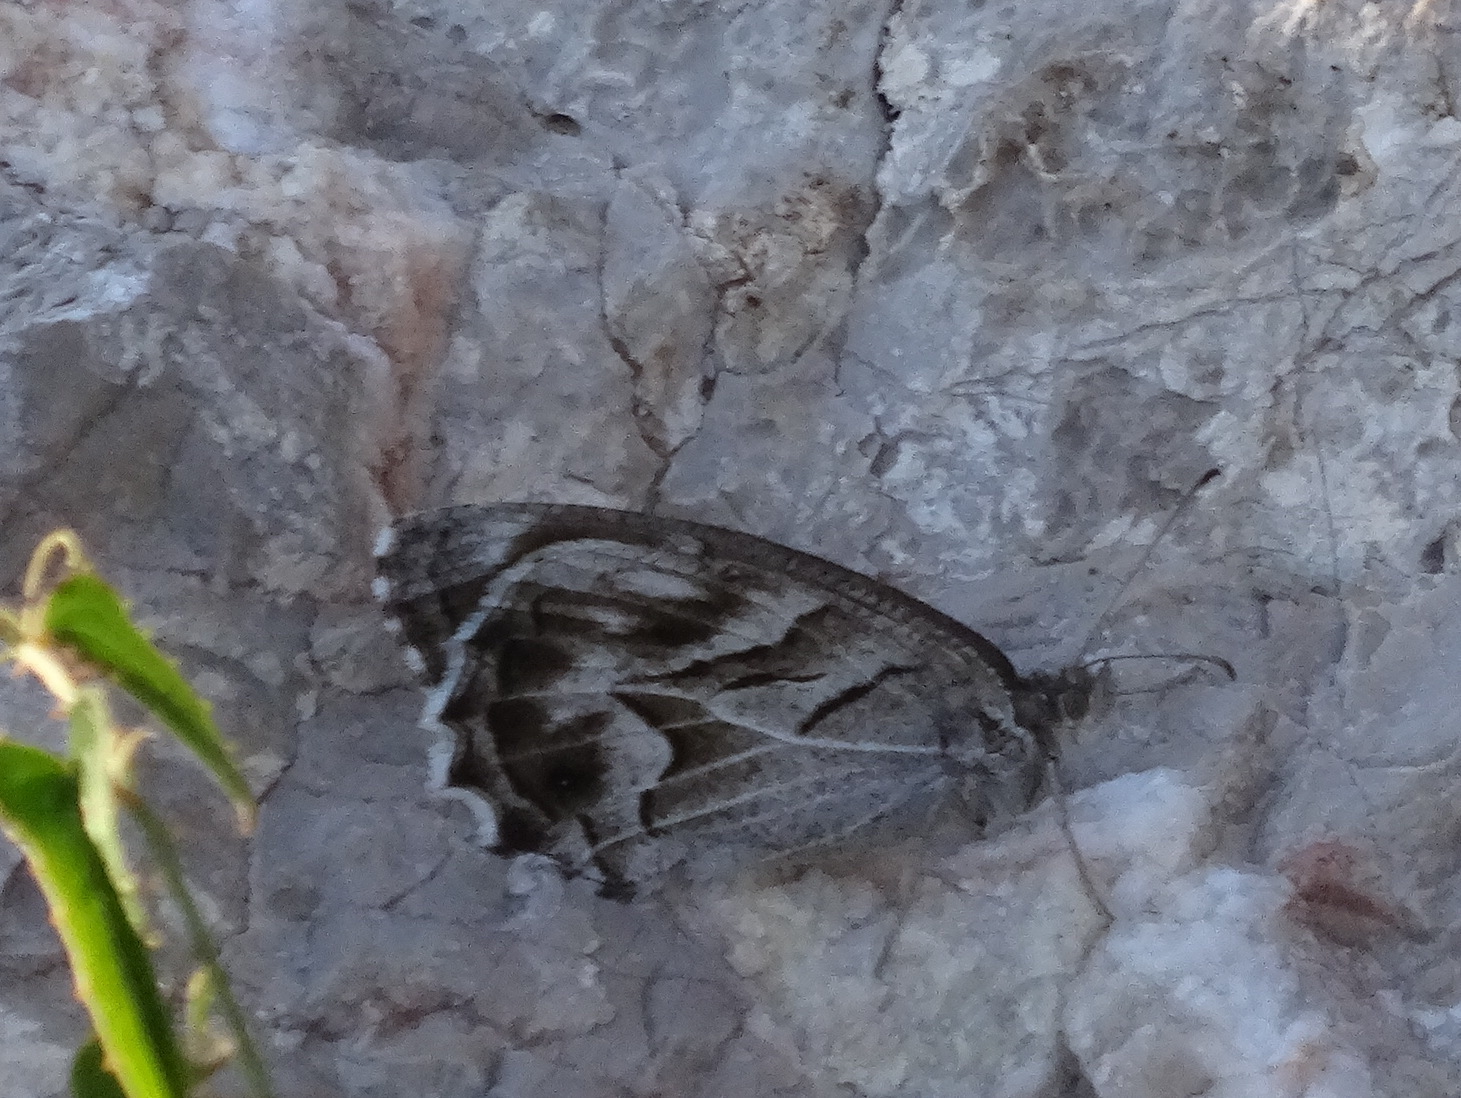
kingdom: Animalia
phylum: Arthropoda
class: Insecta
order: Lepidoptera
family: Nymphalidae
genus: Hipparchia
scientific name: Hipparchia fidia
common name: Striped grayling
